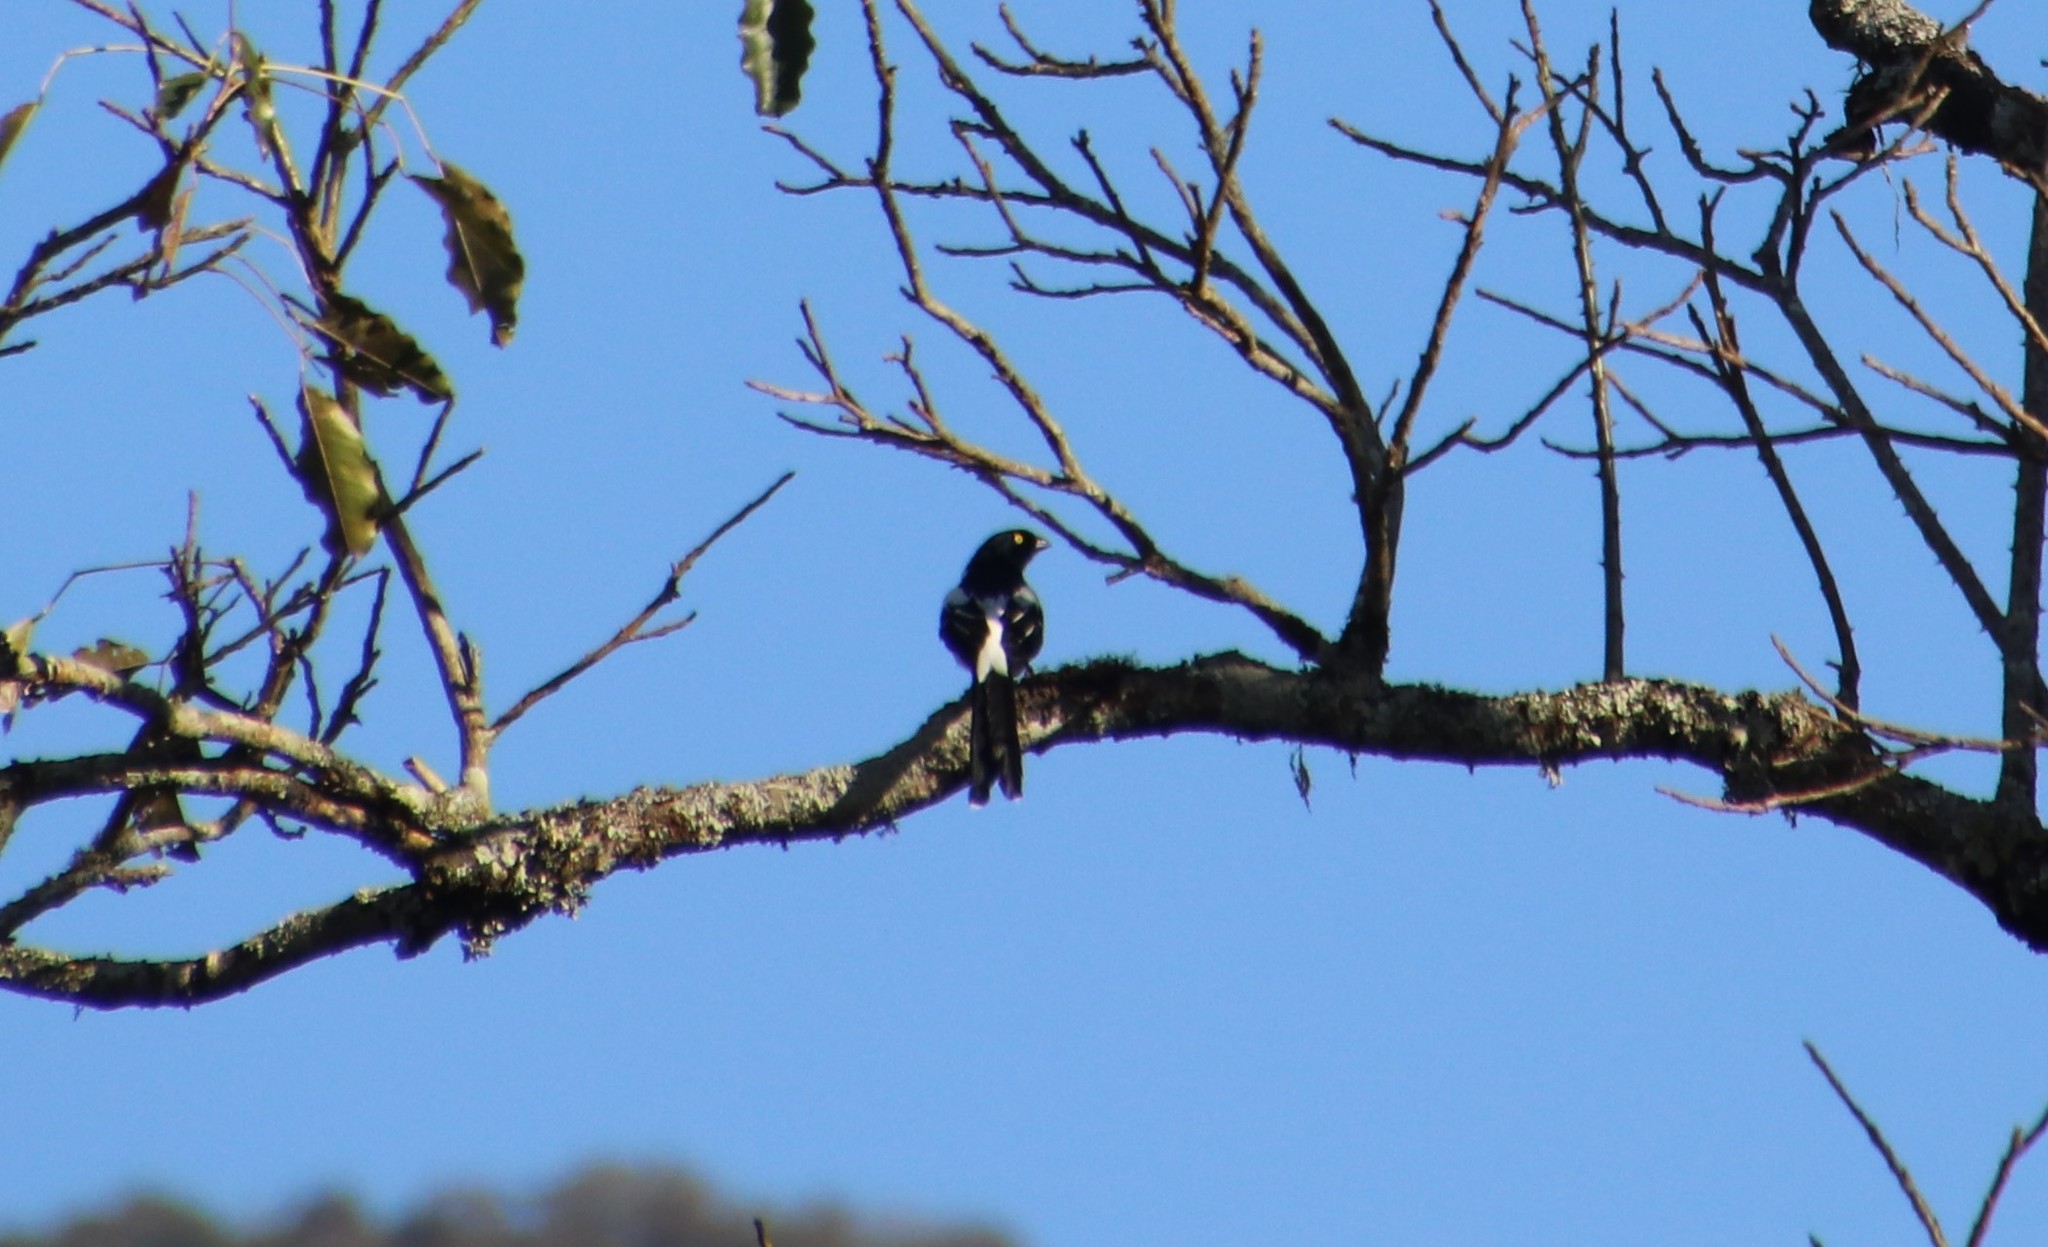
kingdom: Animalia
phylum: Chordata
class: Aves
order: Passeriformes
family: Thraupidae
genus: Cissopis
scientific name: Cissopis leverianus
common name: Magpie tanager
